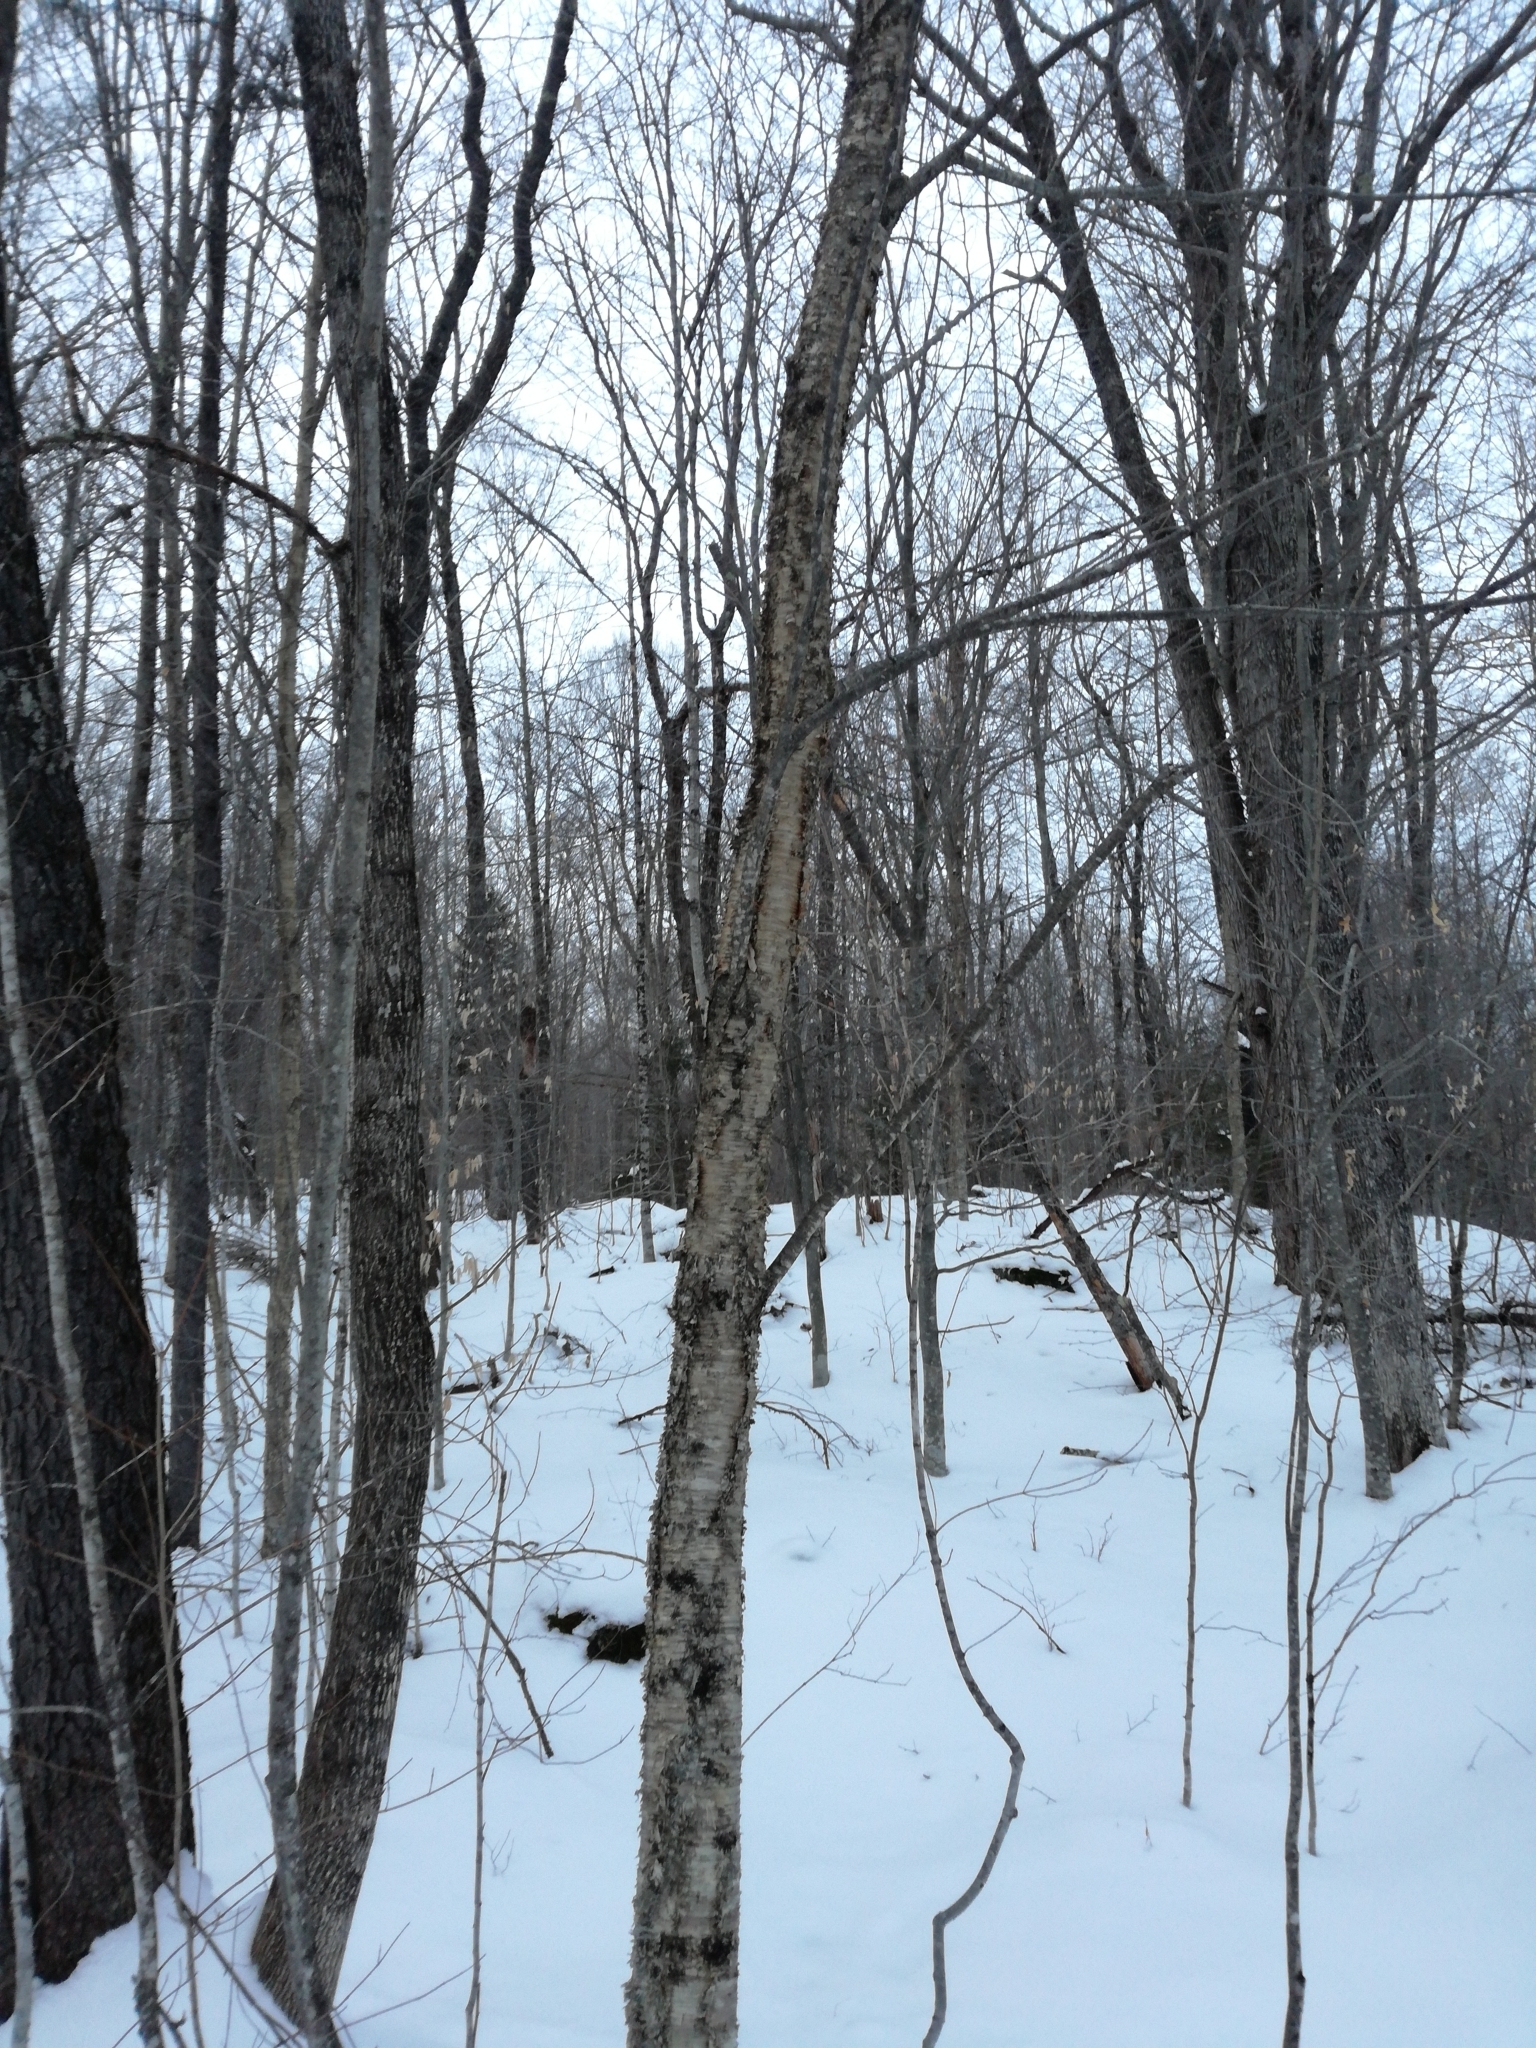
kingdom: Plantae
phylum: Tracheophyta
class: Magnoliopsida
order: Fagales
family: Betulaceae
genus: Betula
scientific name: Betula alleghaniensis
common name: Yellow birch
